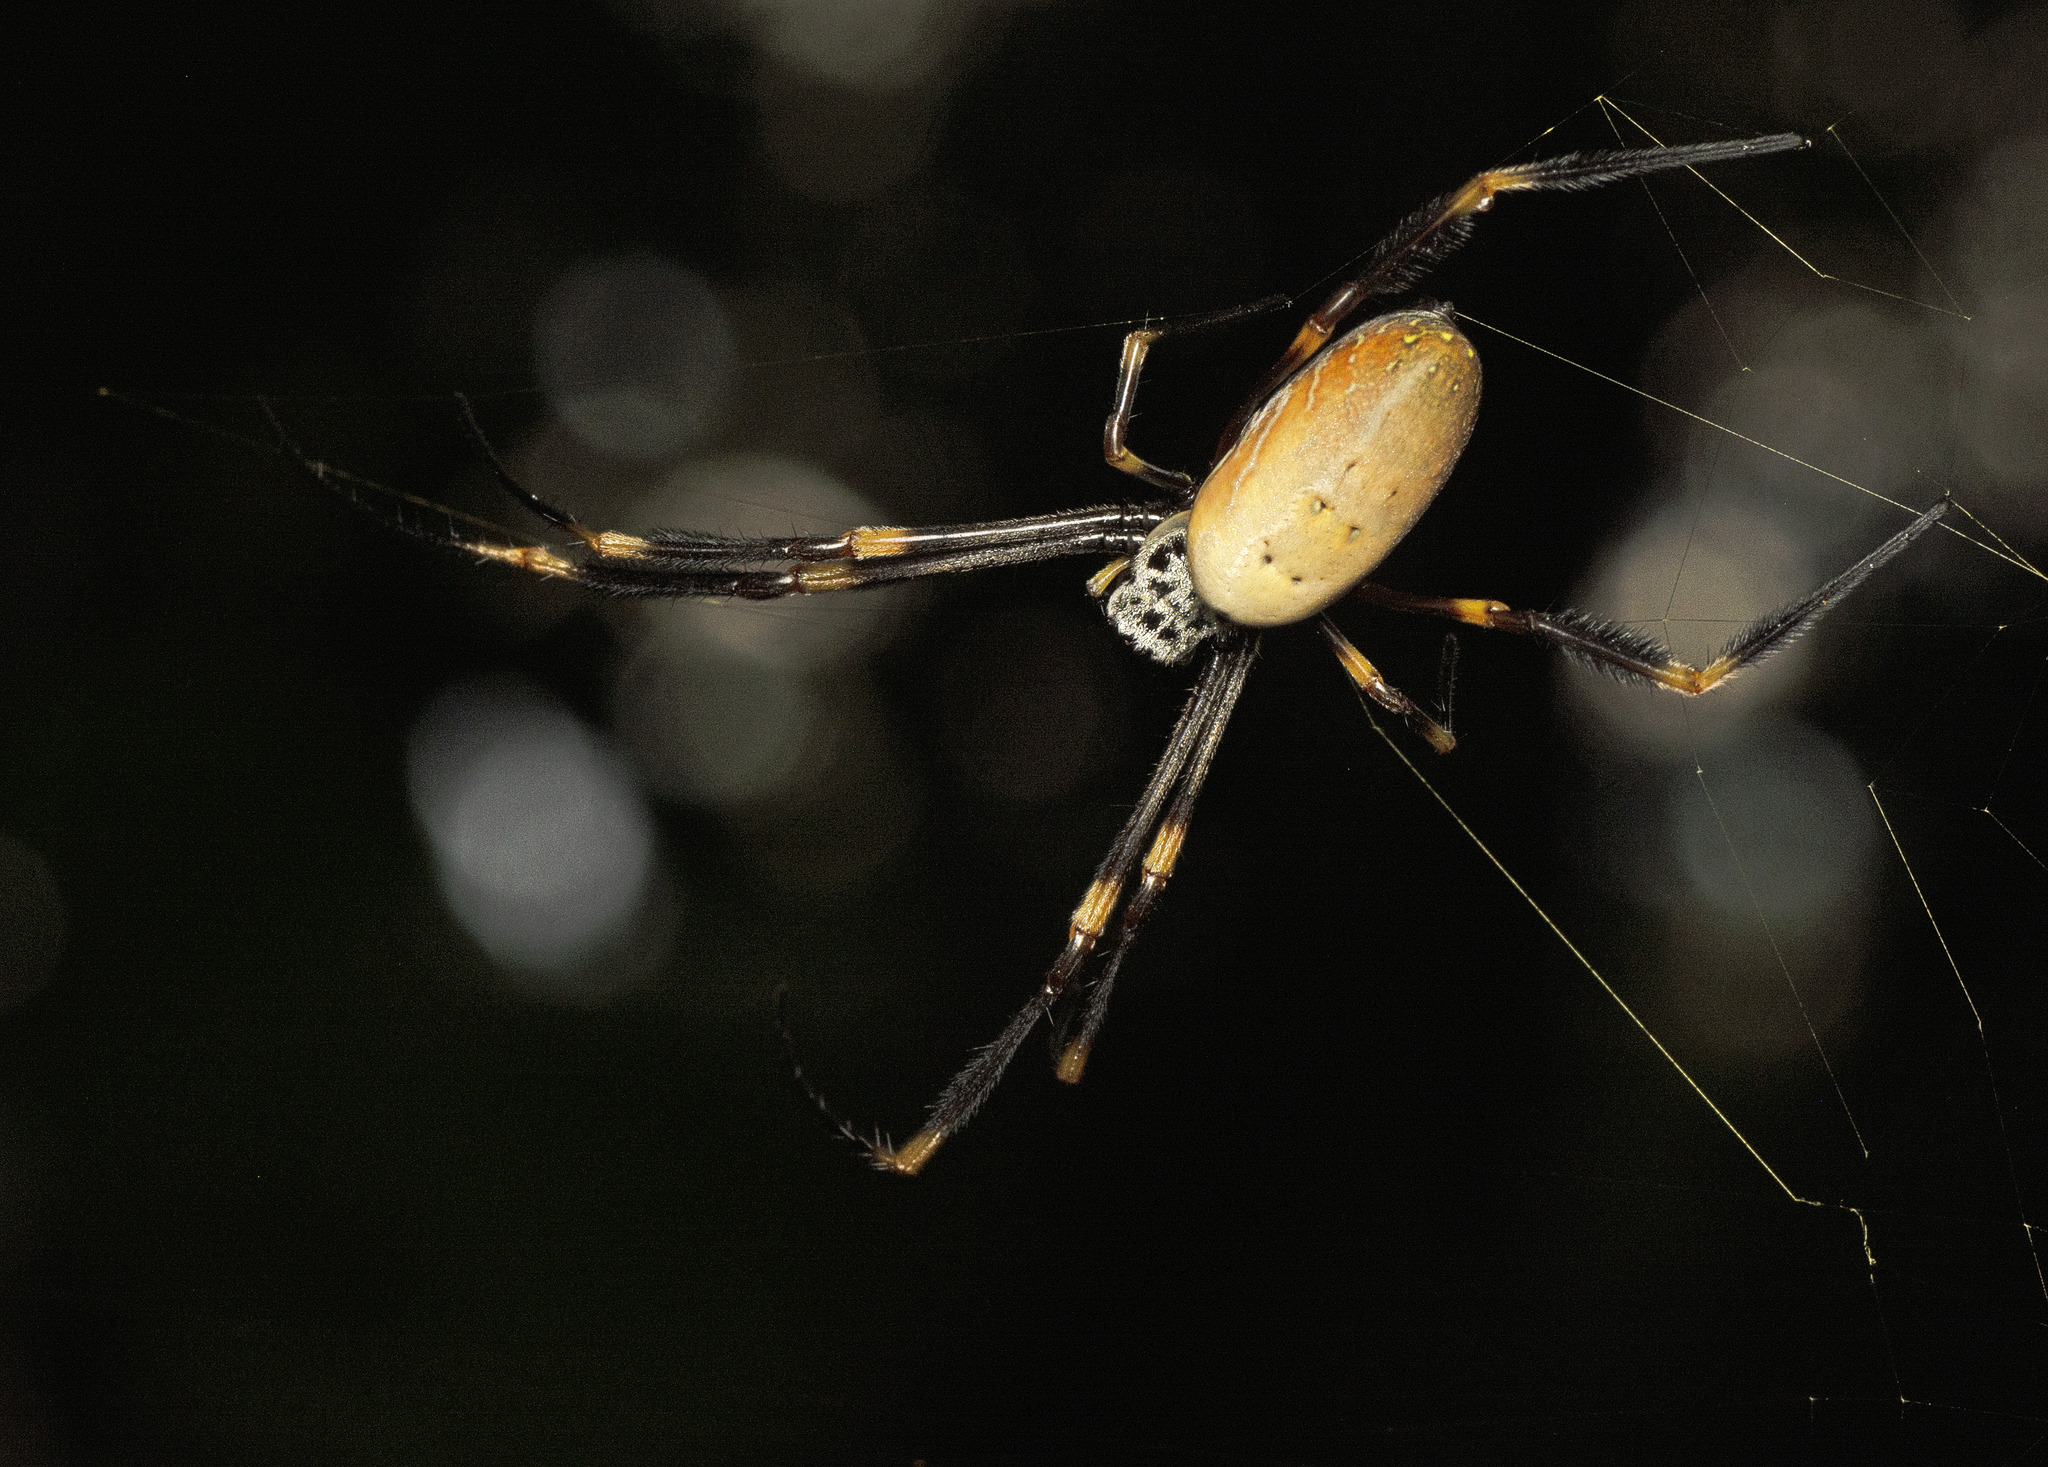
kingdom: Animalia
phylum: Arthropoda
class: Arachnida
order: Araneae
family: Araneidae
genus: Trichonephila
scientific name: Trichonephila plumipes
